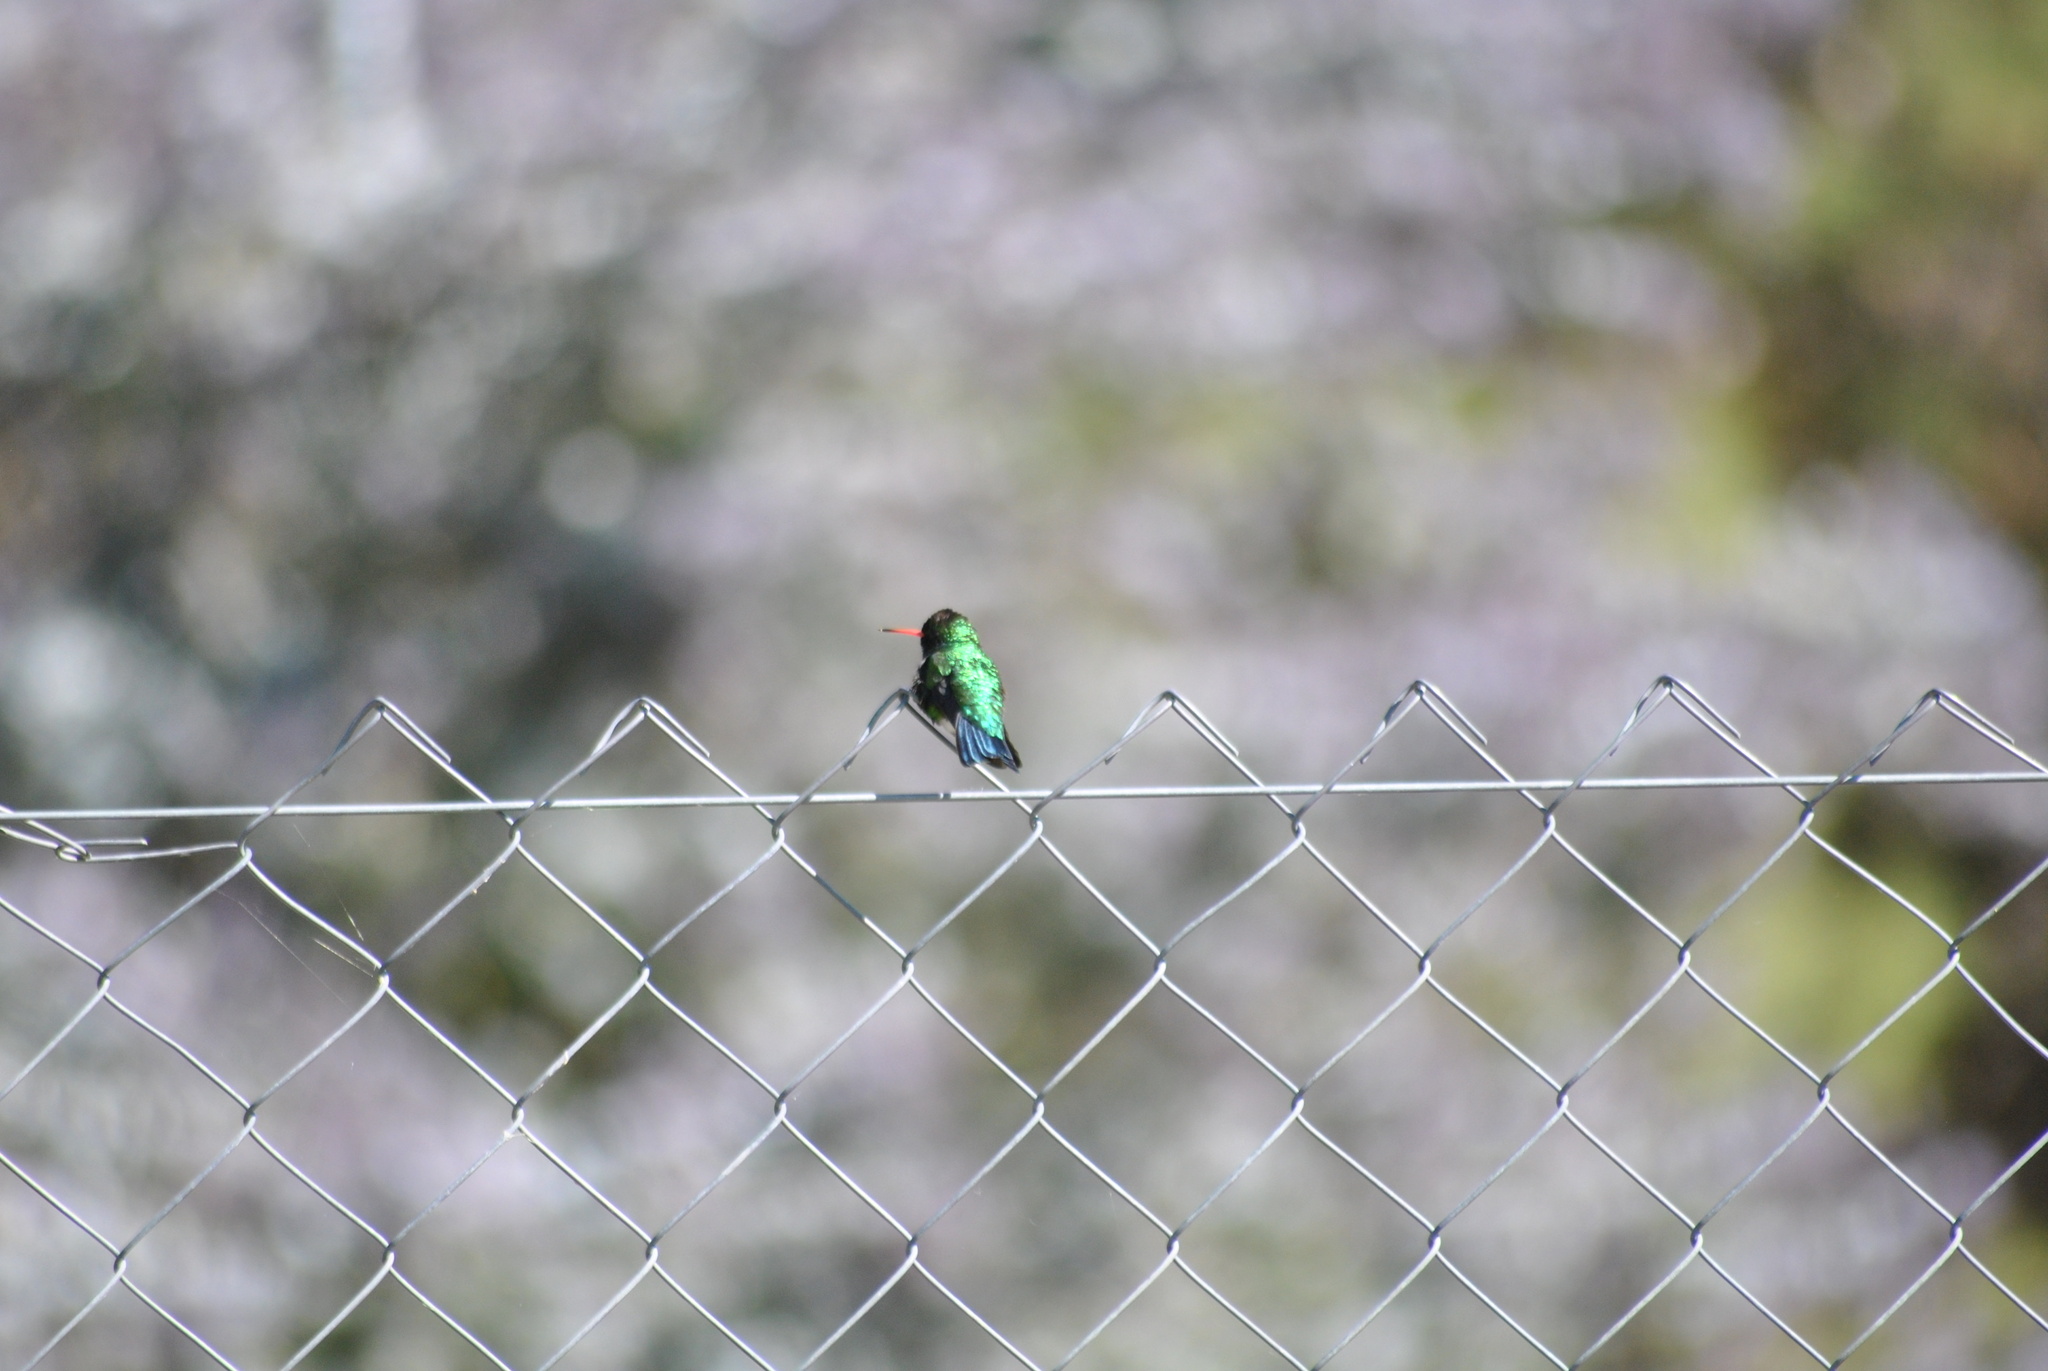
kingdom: Animalia
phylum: Chordata
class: Aves
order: Apodiformes
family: Trochilidae
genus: Chlorostilbon
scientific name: Chlorostilbon lucidus
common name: Glittering-bellied emerald
